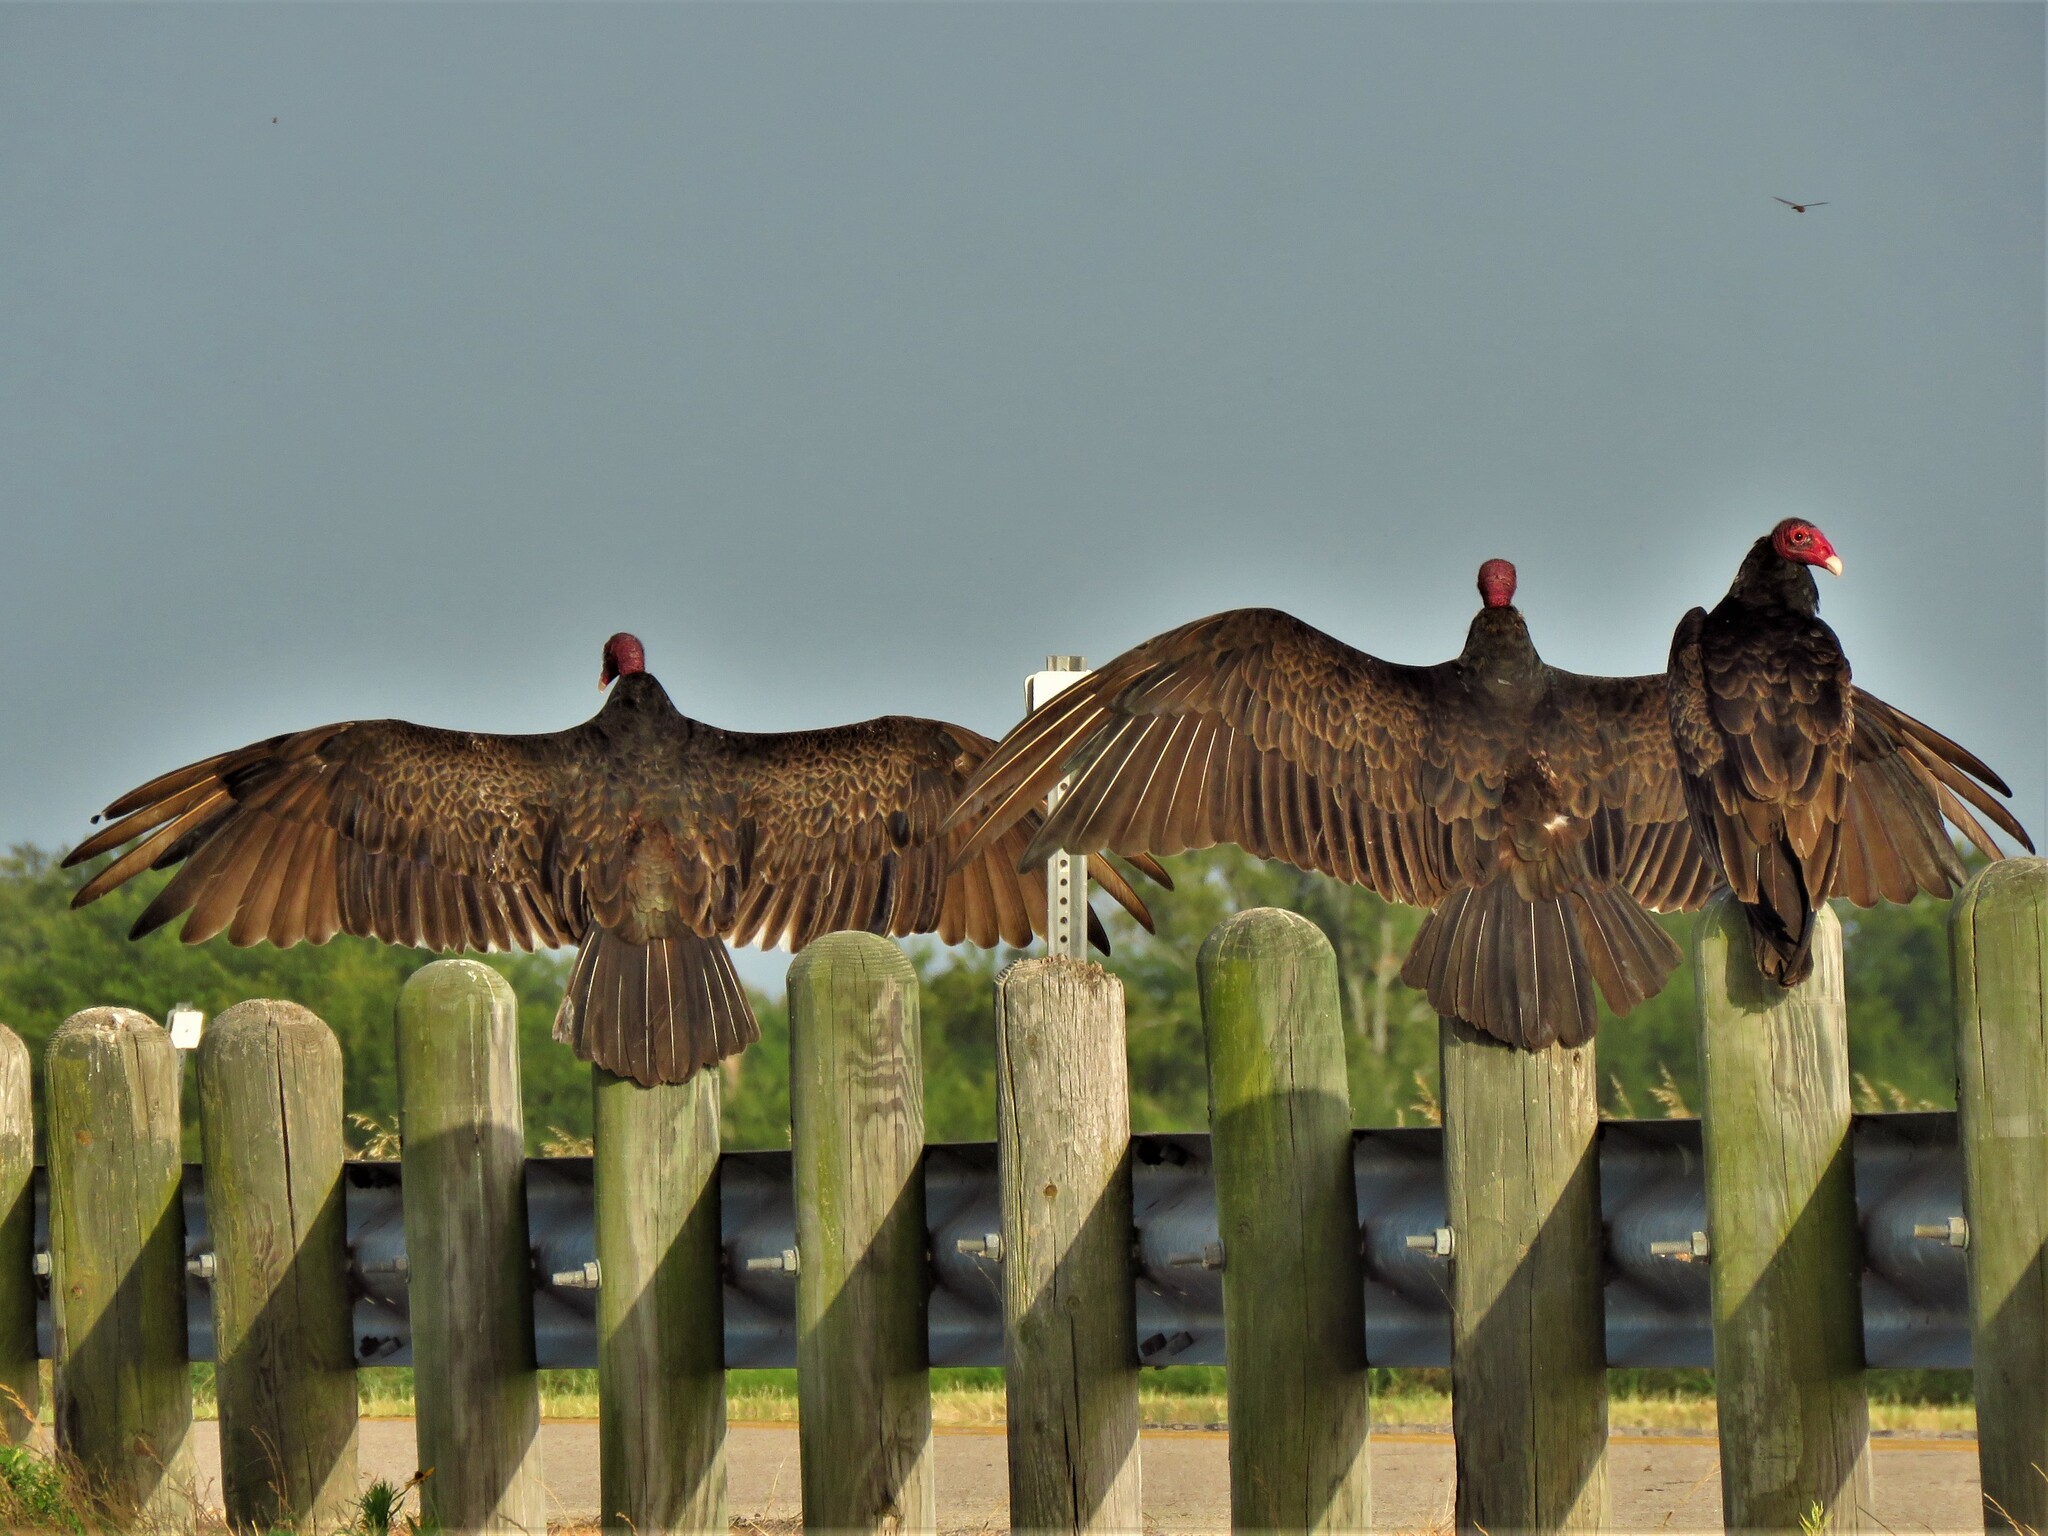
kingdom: Animalia
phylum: Chordata
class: Aves
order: Accipitriformes
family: Cathartidae
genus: Cathartes
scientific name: Cathartes aura
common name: Turkey vulture
